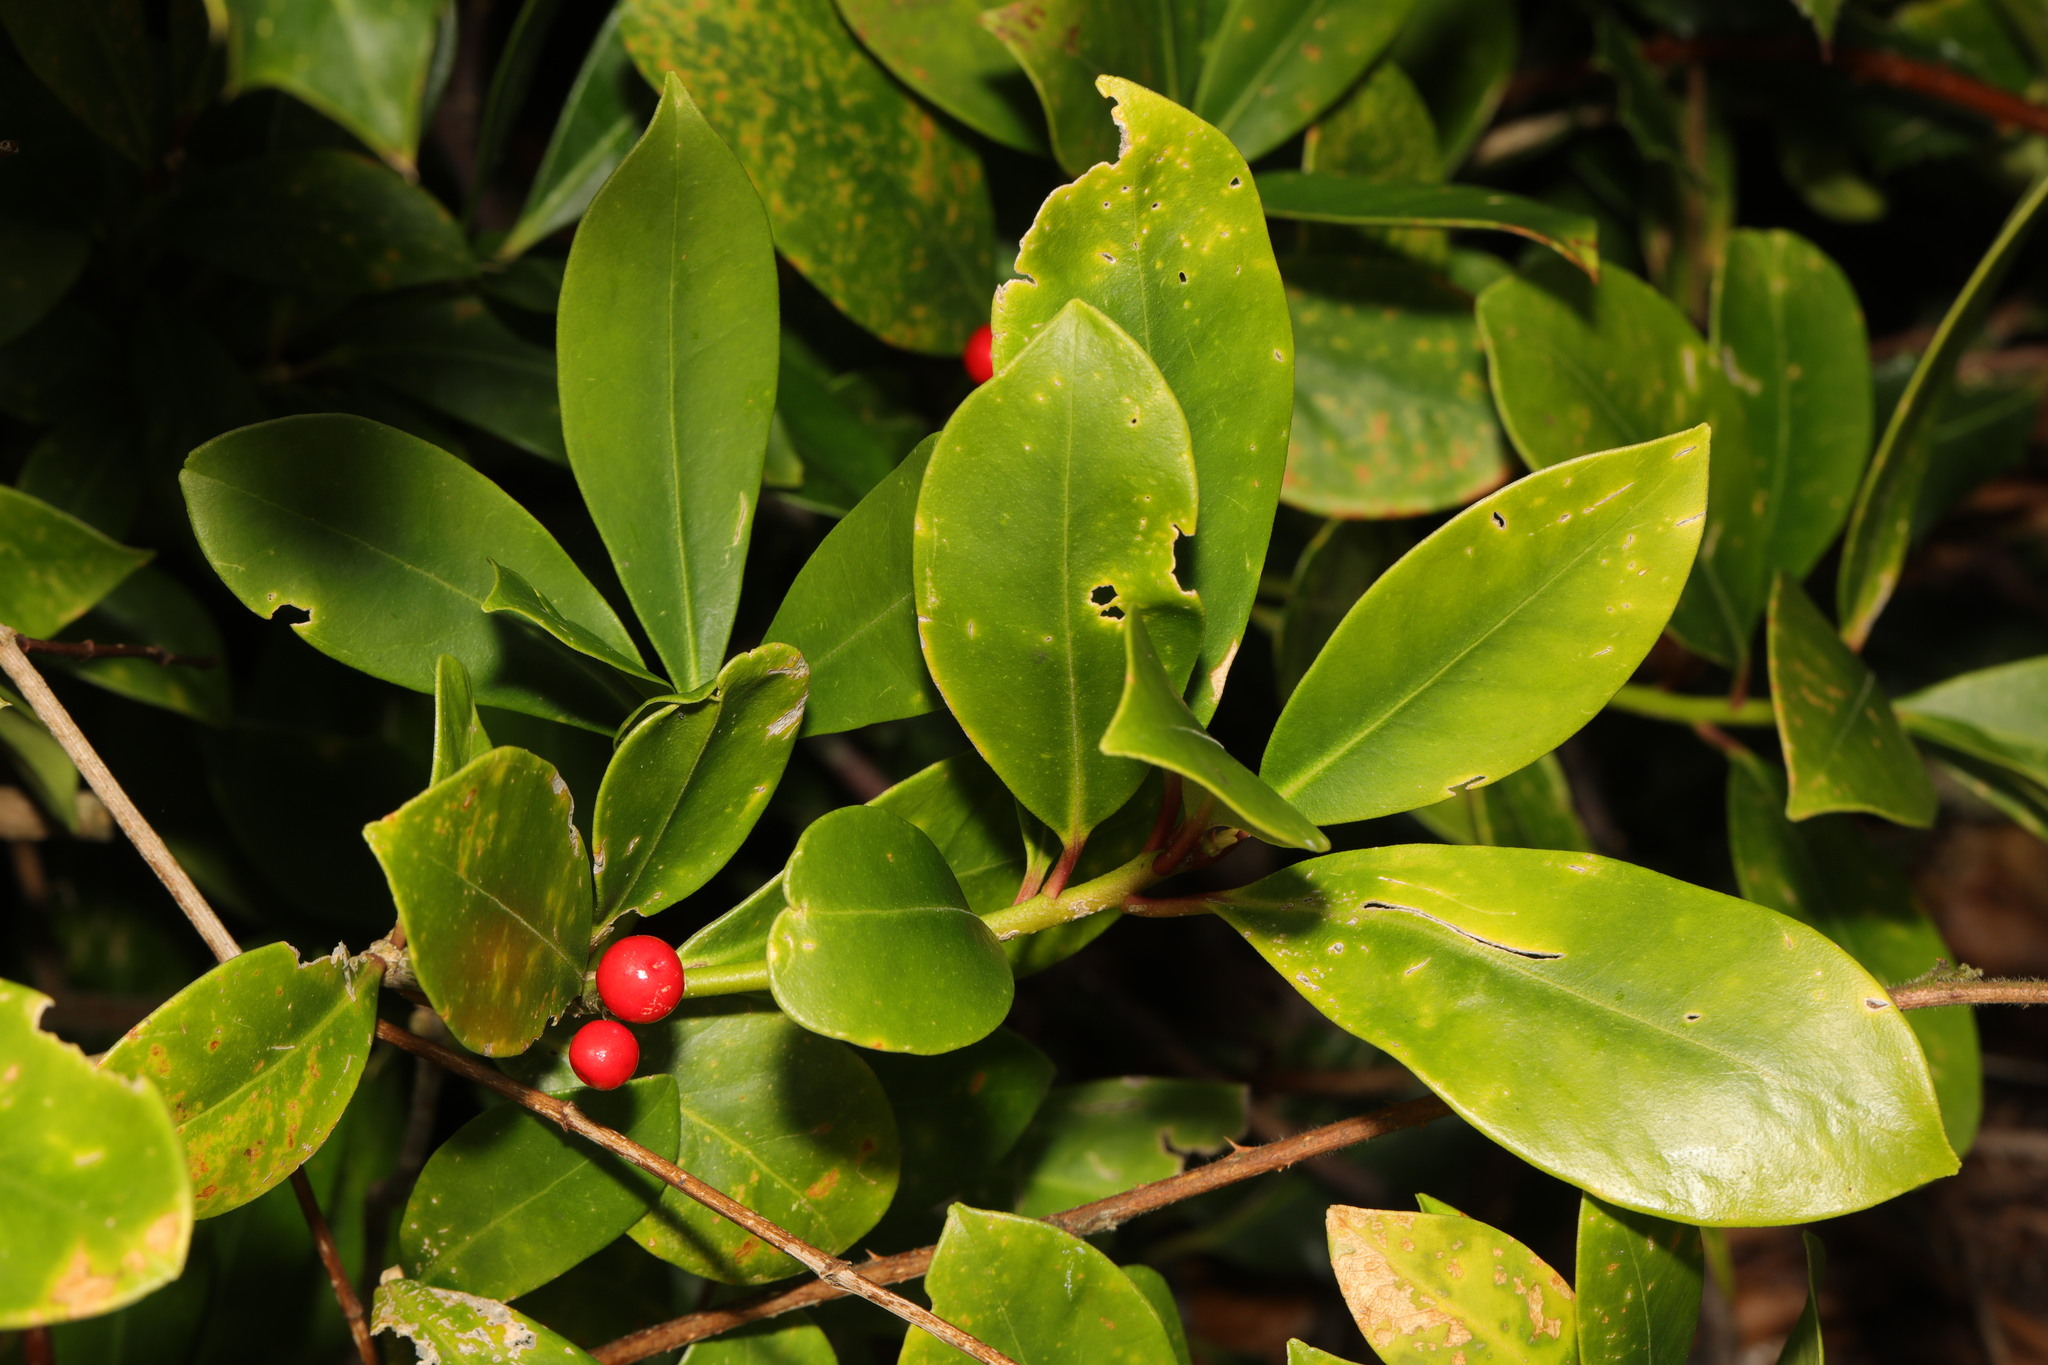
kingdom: Plantae
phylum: Tracheophyta
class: Magnoliopsida
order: Sapindales
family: Rutaceae
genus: Skimmia
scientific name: Skimmia japonica
